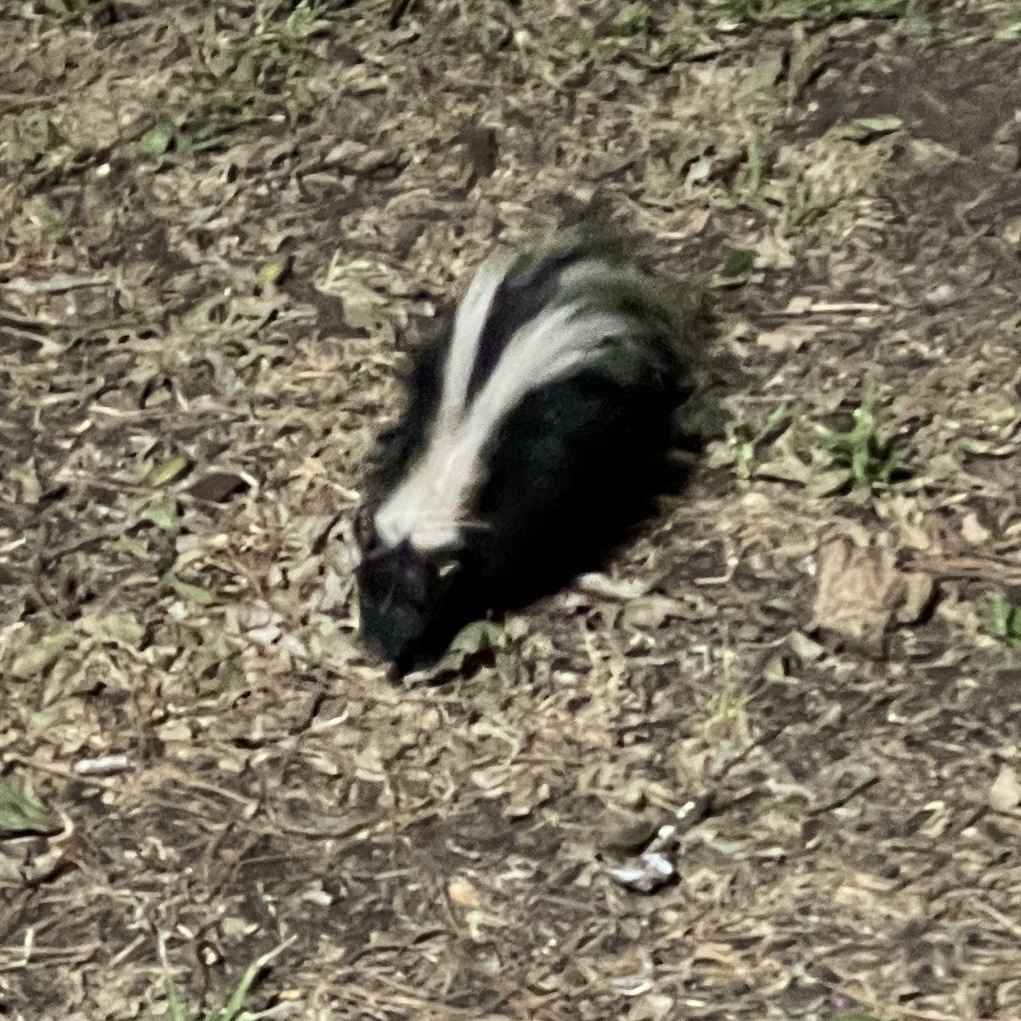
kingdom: Animalia
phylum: Chordata
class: Mammalia
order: Carnivora
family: Mephitidae
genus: Mephitis
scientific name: Mephitis mephitis
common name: Striped skunk
